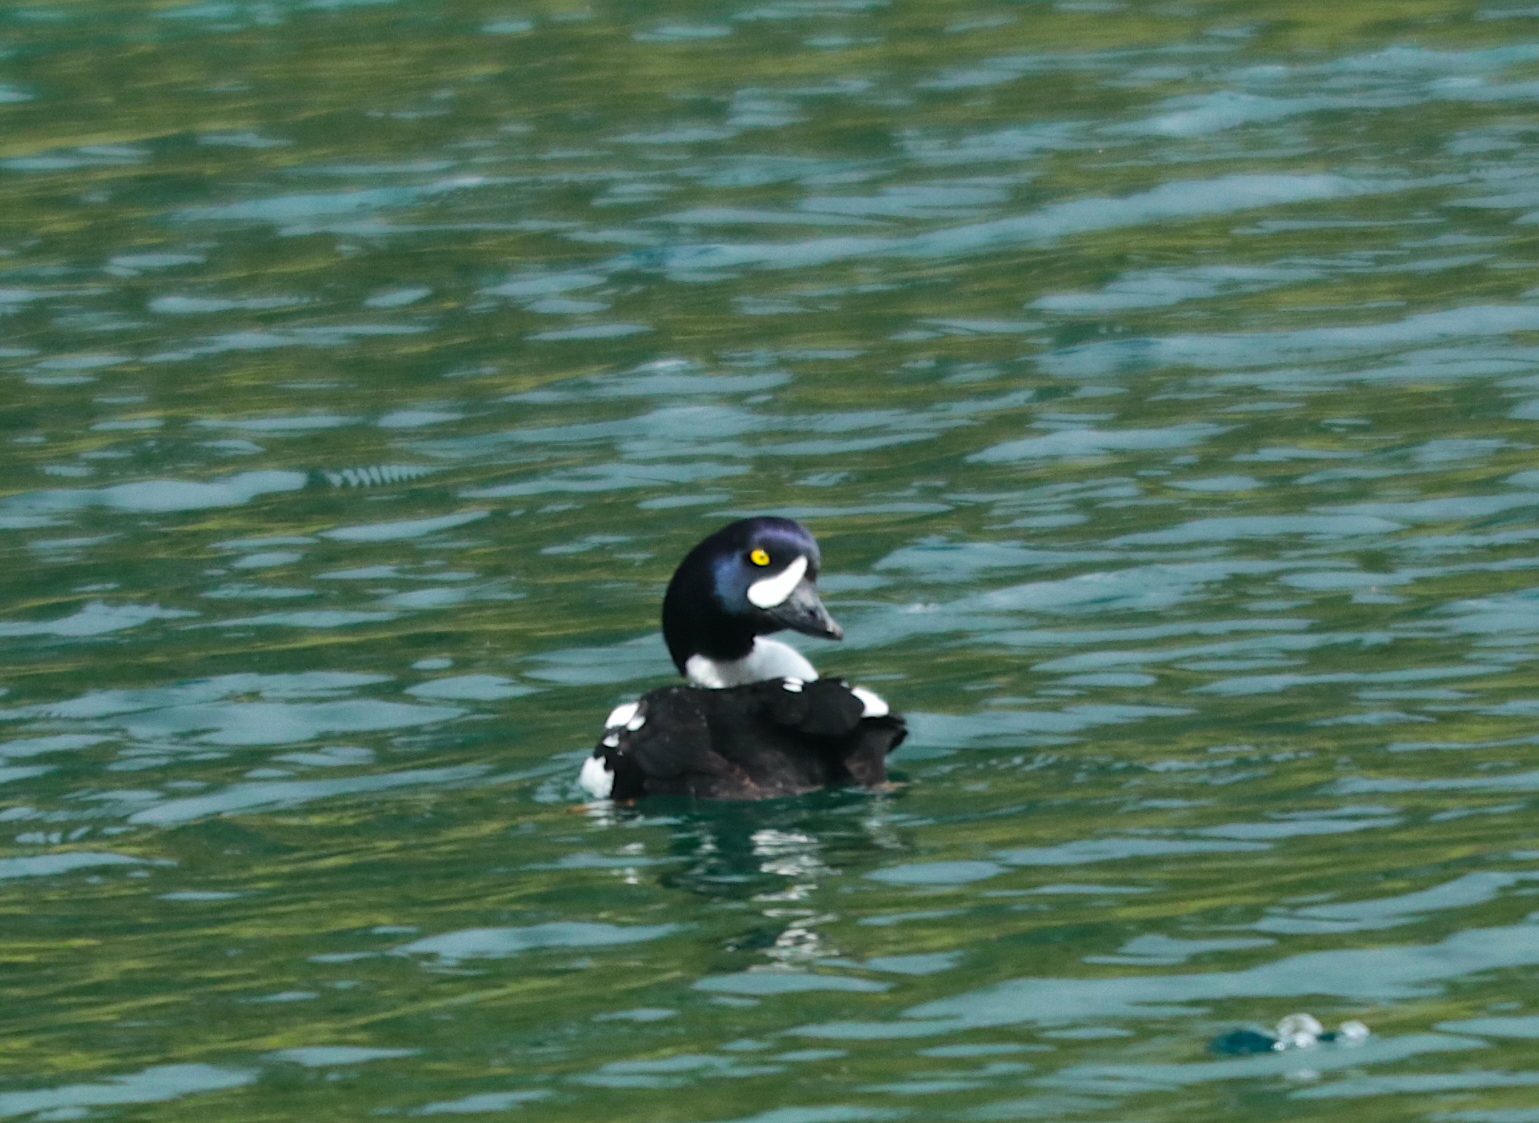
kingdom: Animalia
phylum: Chordata
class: Aves
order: Anseriformes
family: Anatidae
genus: Bucephala
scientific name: Bucephala islandica
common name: Barrow's goldeneye
